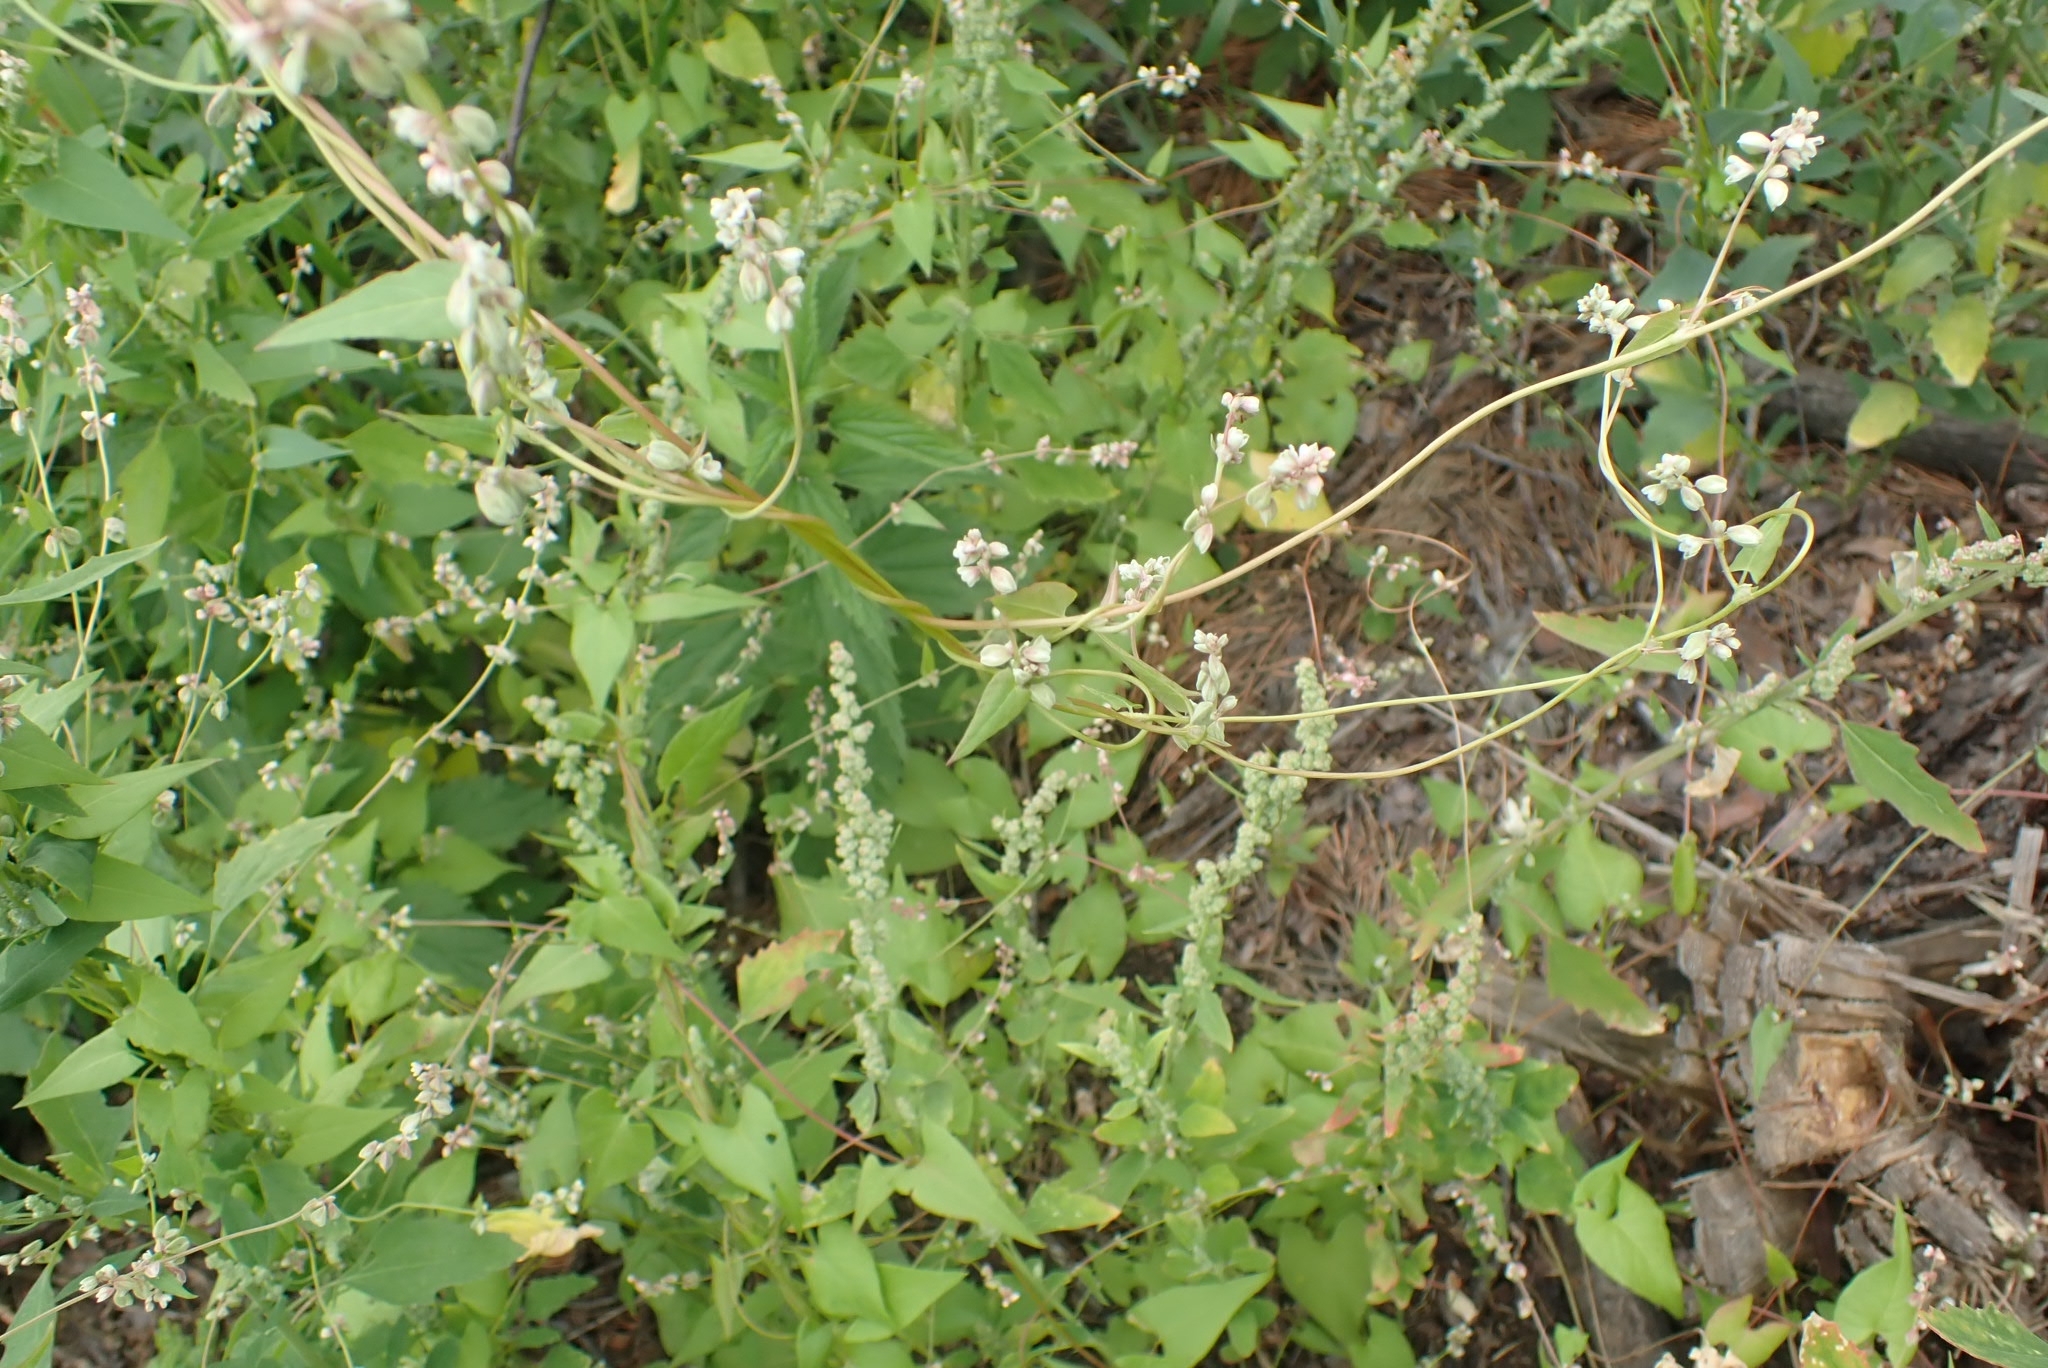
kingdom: Plantae
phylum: Tracheophyta
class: Magnoliopsida
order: Caryophyllales
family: Polygonaceae
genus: Fallopia
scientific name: Fallopia convolvulus
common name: Black bindweed
